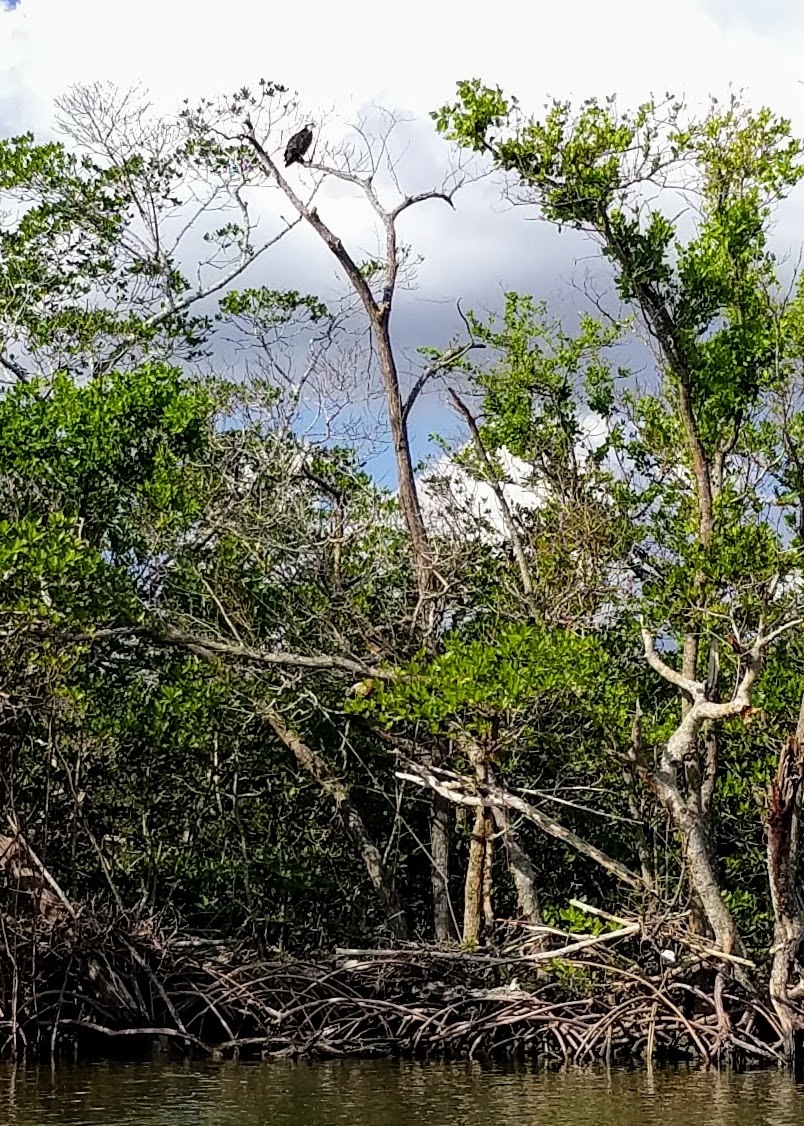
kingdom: Animalia
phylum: Chordata
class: Aves
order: Accipitriformes
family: Pandionidae
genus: Pandion
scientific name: Pandion haliaetus
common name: Osprey
